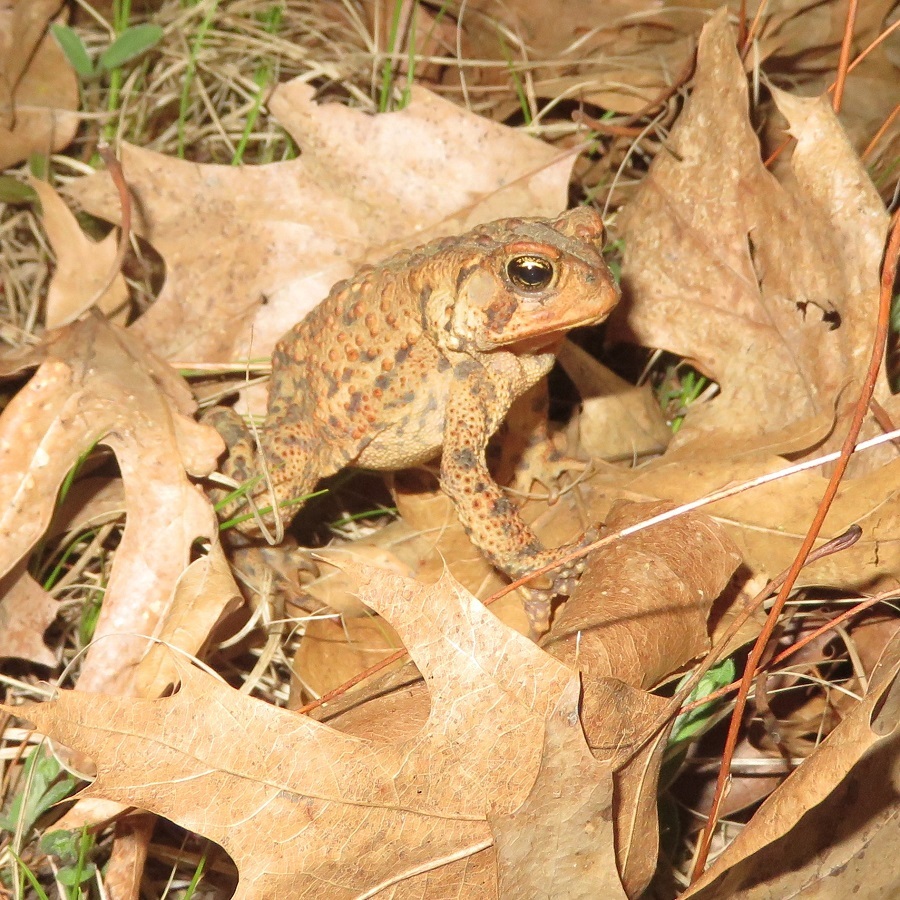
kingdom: Animalia
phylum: Chordata
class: Amphibia
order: Anura
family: Bufonidae
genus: Anaxyrus
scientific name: Anaxyrus americanus
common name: American toad
